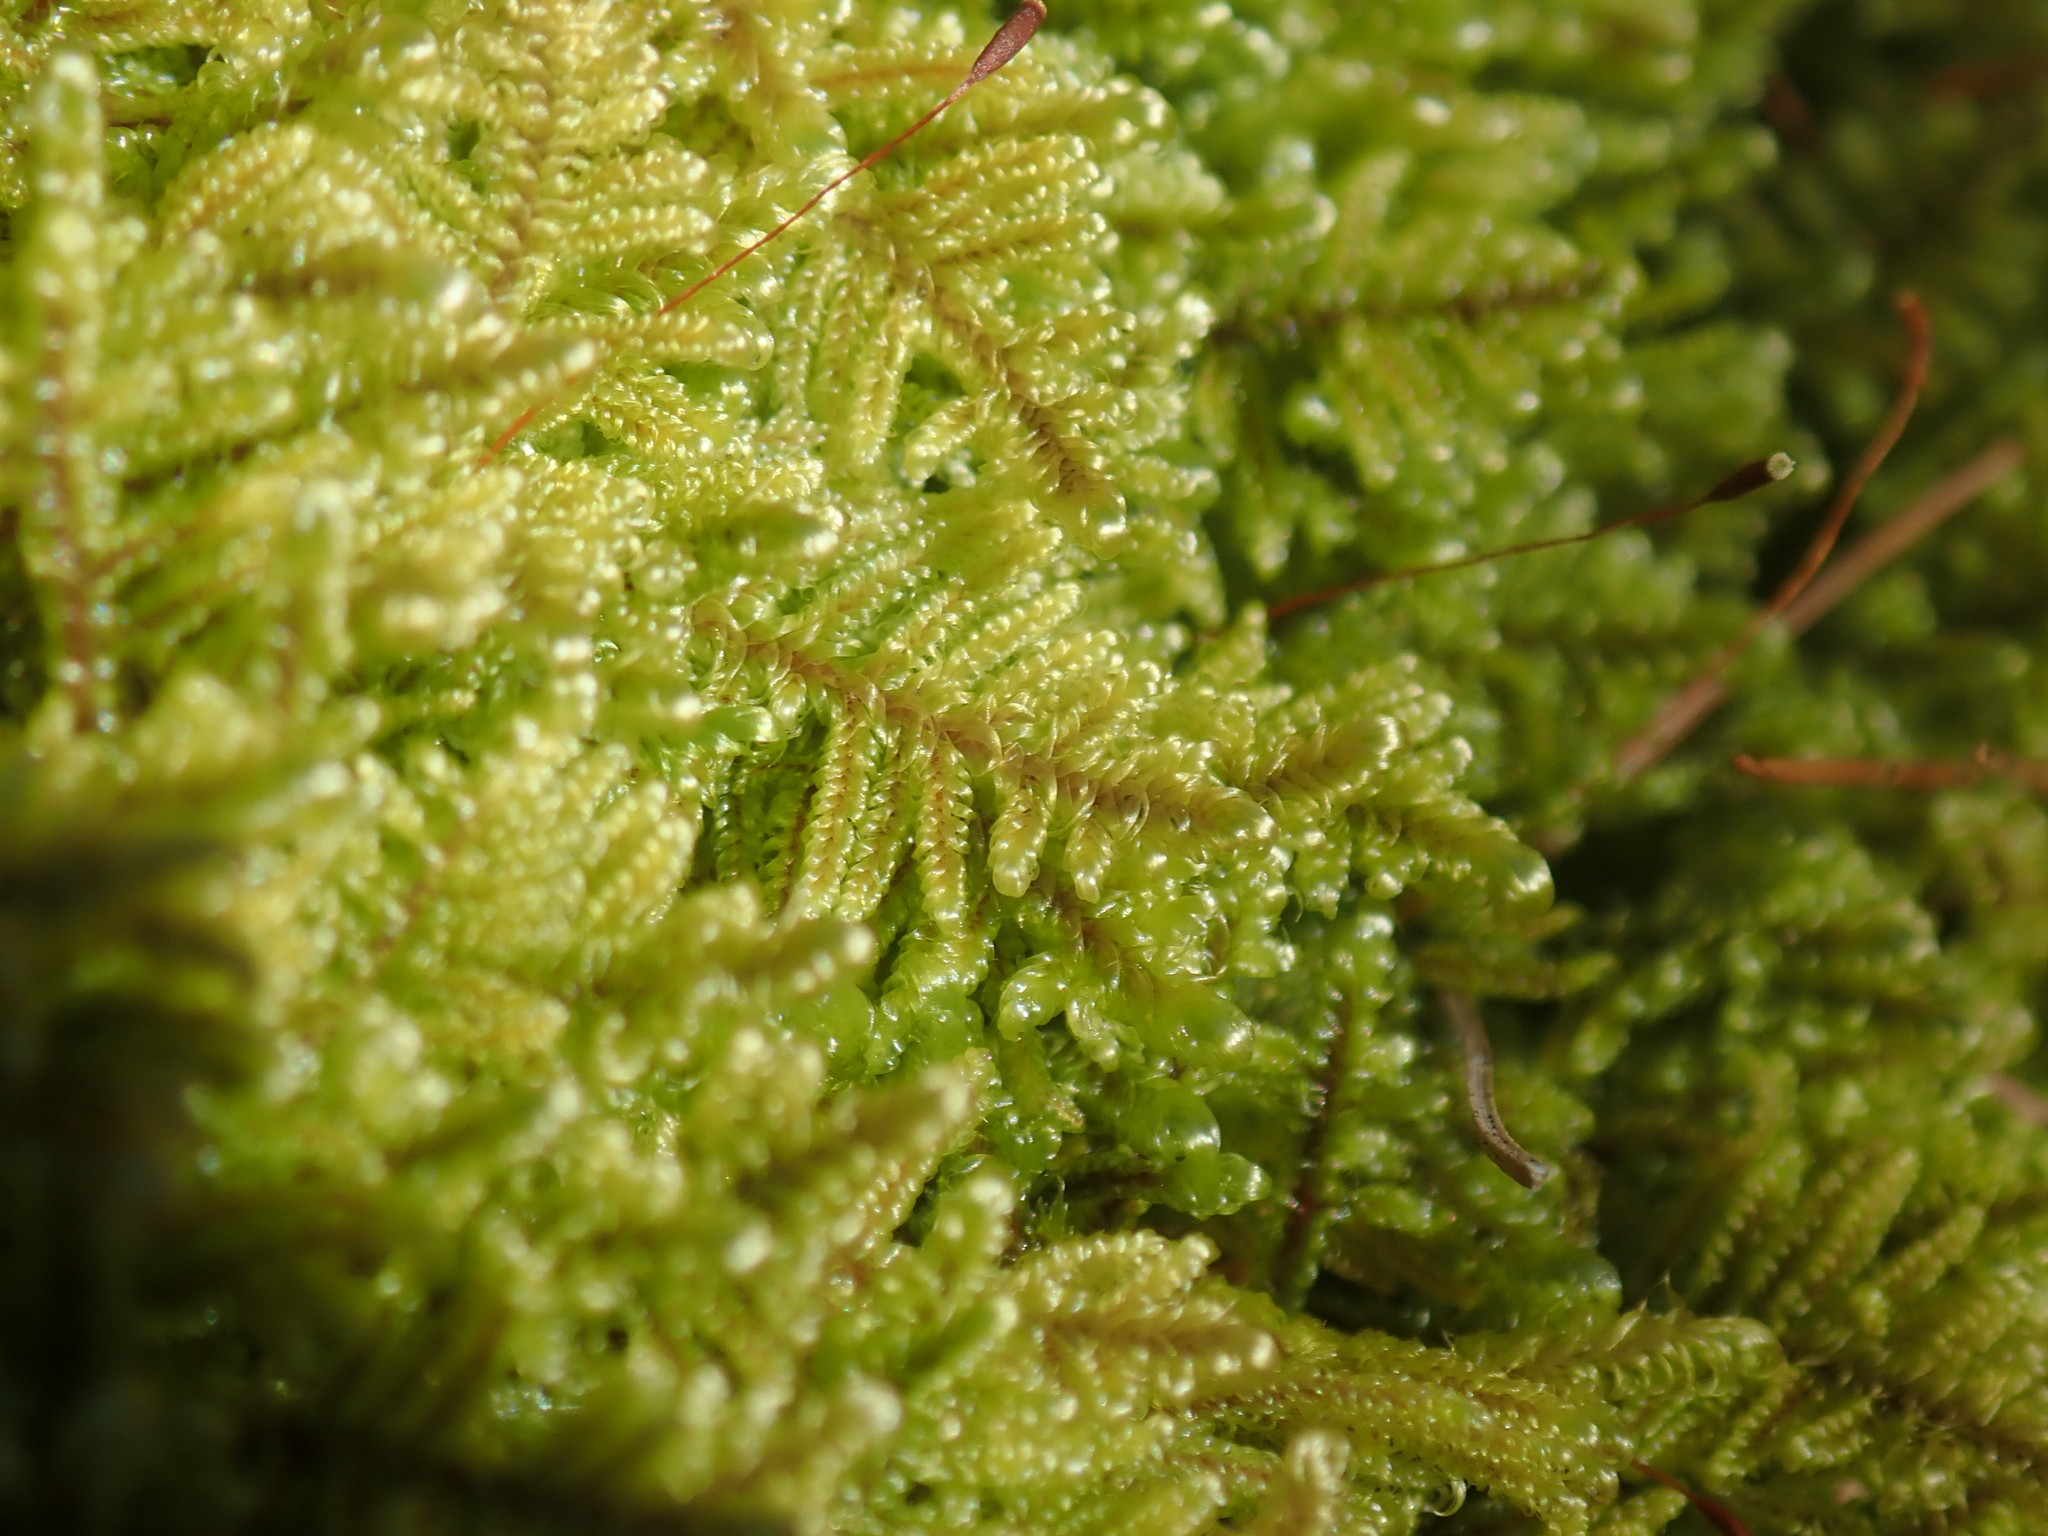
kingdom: Plantae
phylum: Bryophyta
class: Bryopsida
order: Hypnales
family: Callicladiaceae
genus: Callicladium
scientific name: Callicladium imponens
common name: Brocade moss
